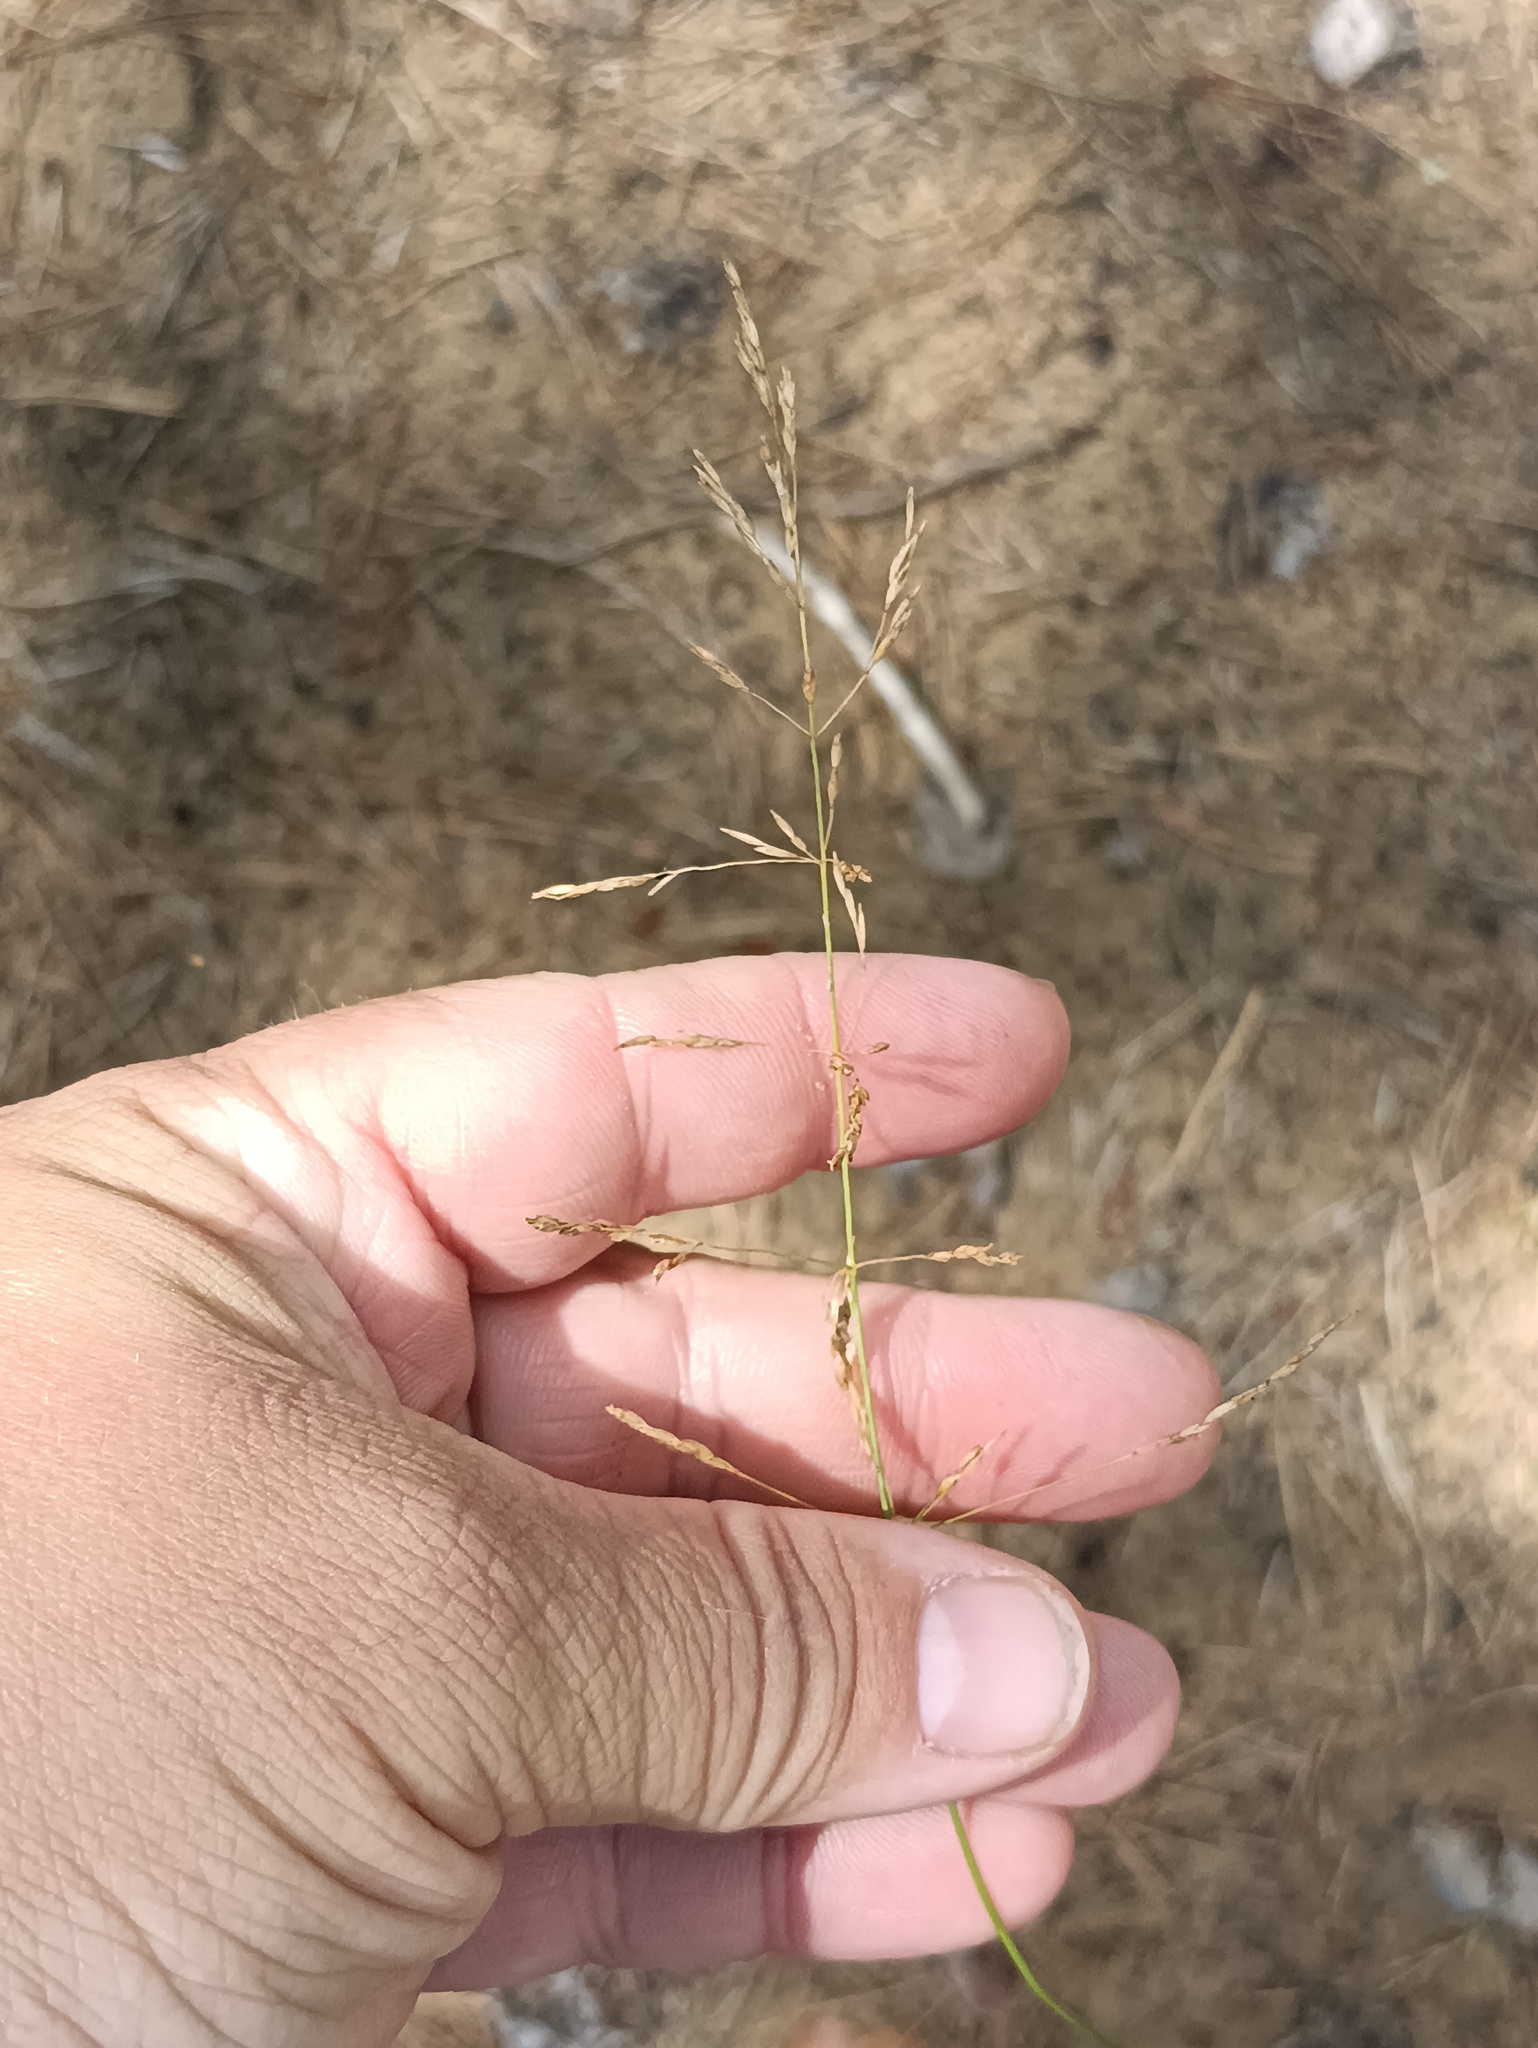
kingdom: Plantae
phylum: Tracheophyta
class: Liliopsida
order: Poales
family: Poaceae
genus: Puccinellia
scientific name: Puccinellia distans
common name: Weeping alkaligrass
